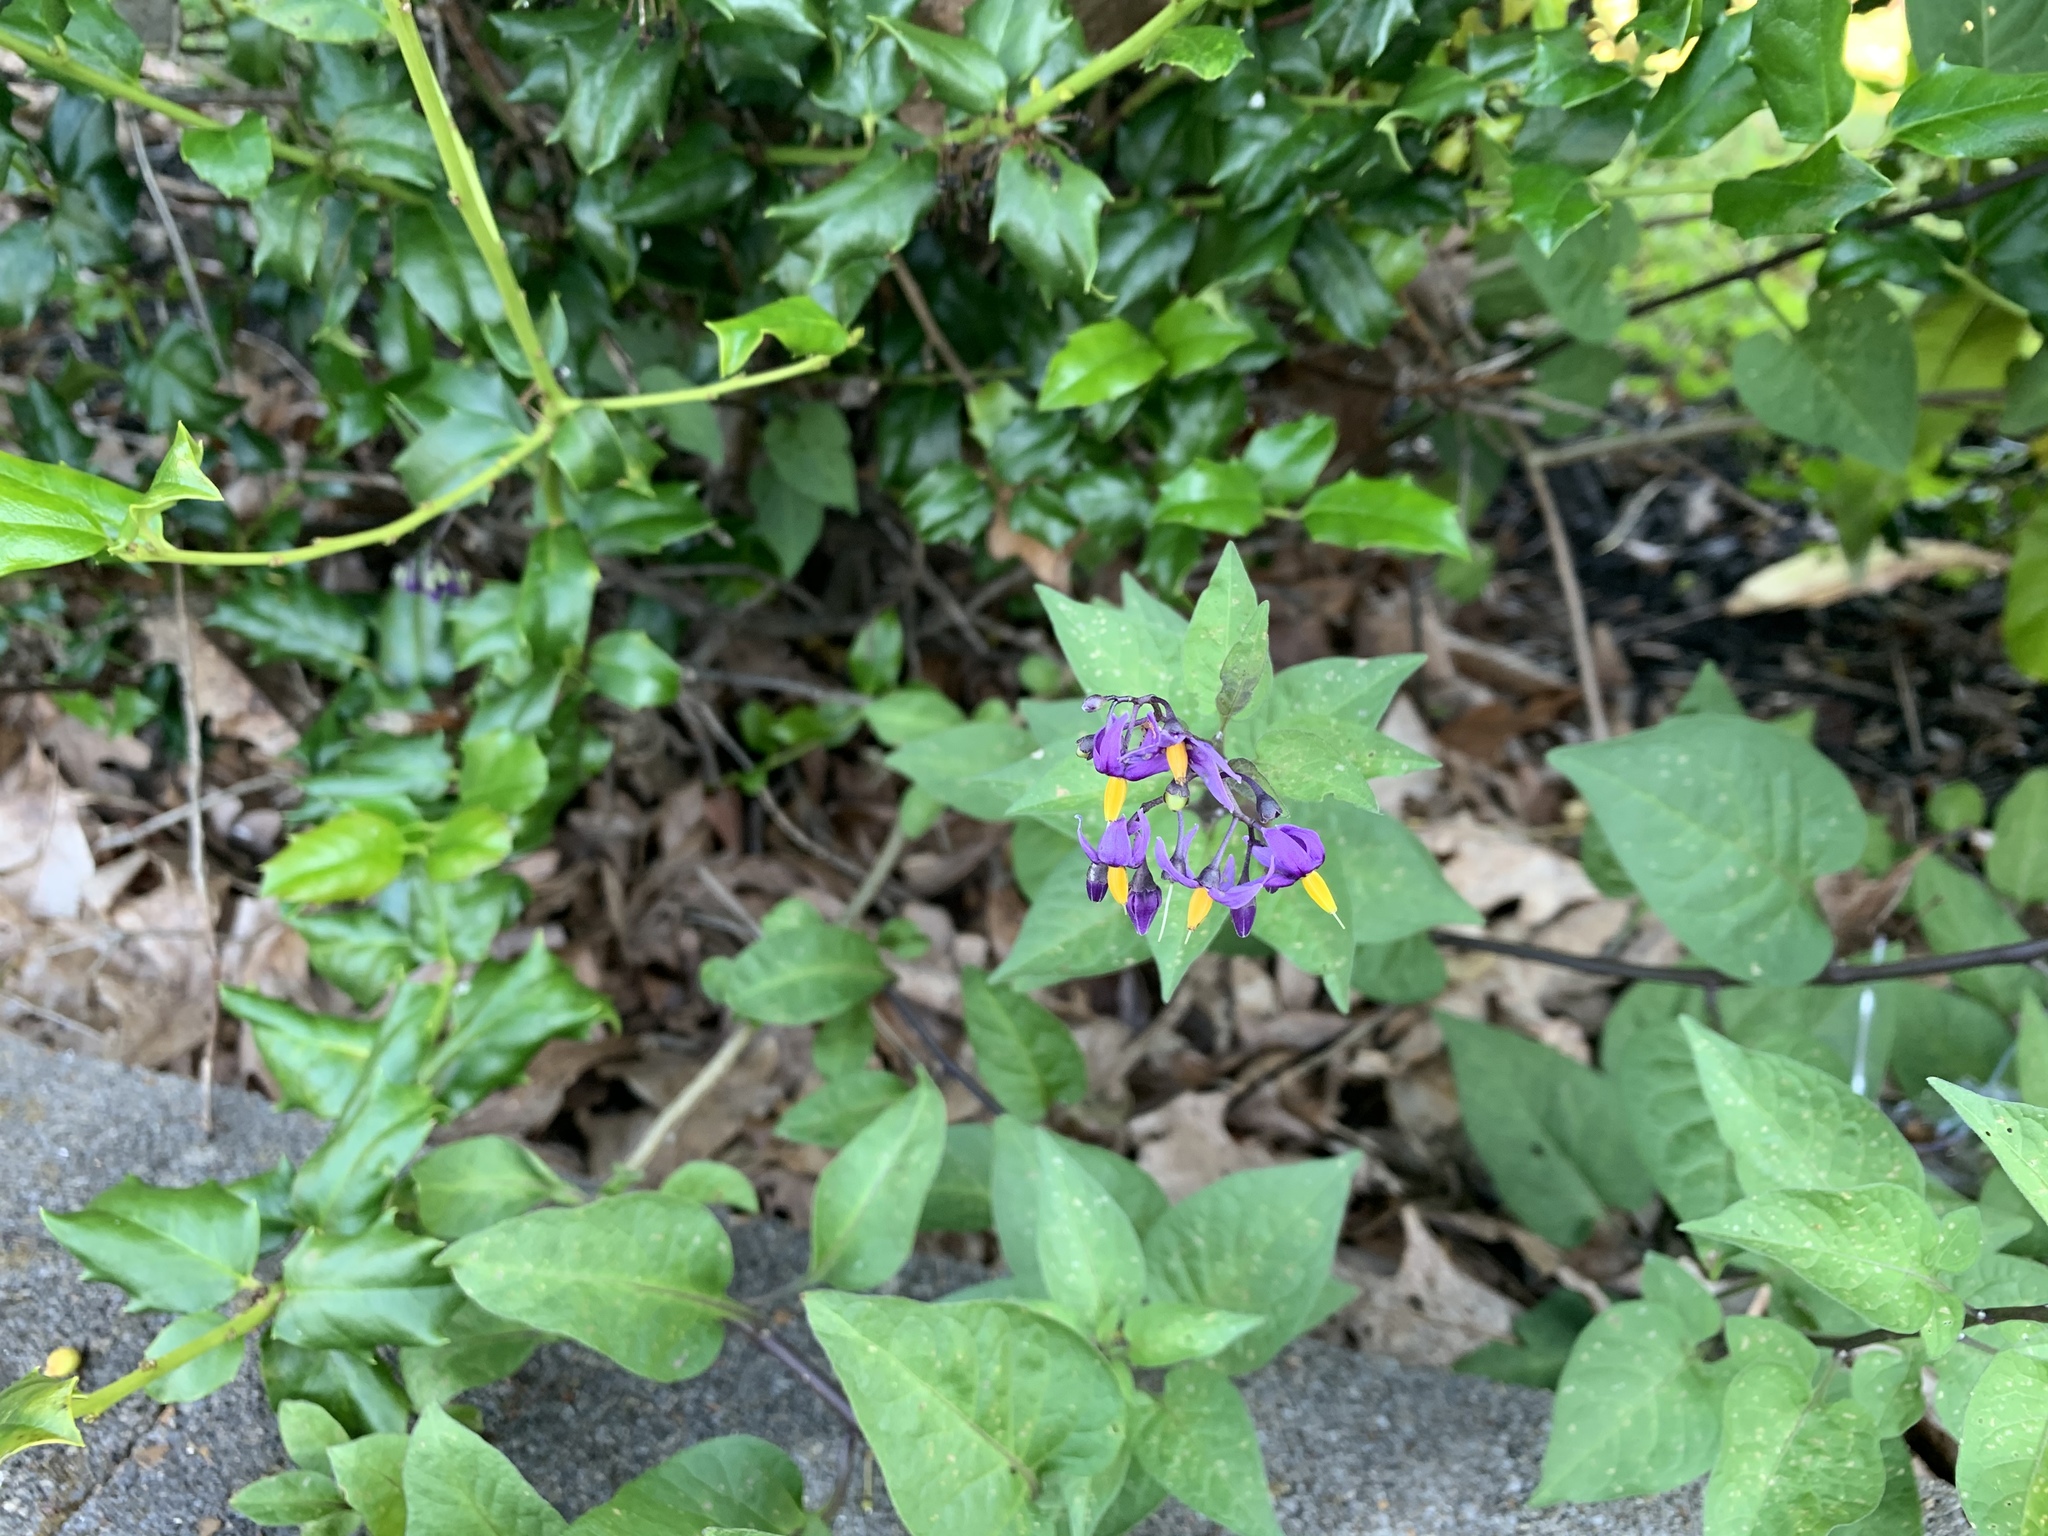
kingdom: Plantae
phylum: Tracheophyta
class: Magnoliopsida
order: Solanales
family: Solanaceae
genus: Solanum
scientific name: Solanum dulcamara
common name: Climbing nightshade
